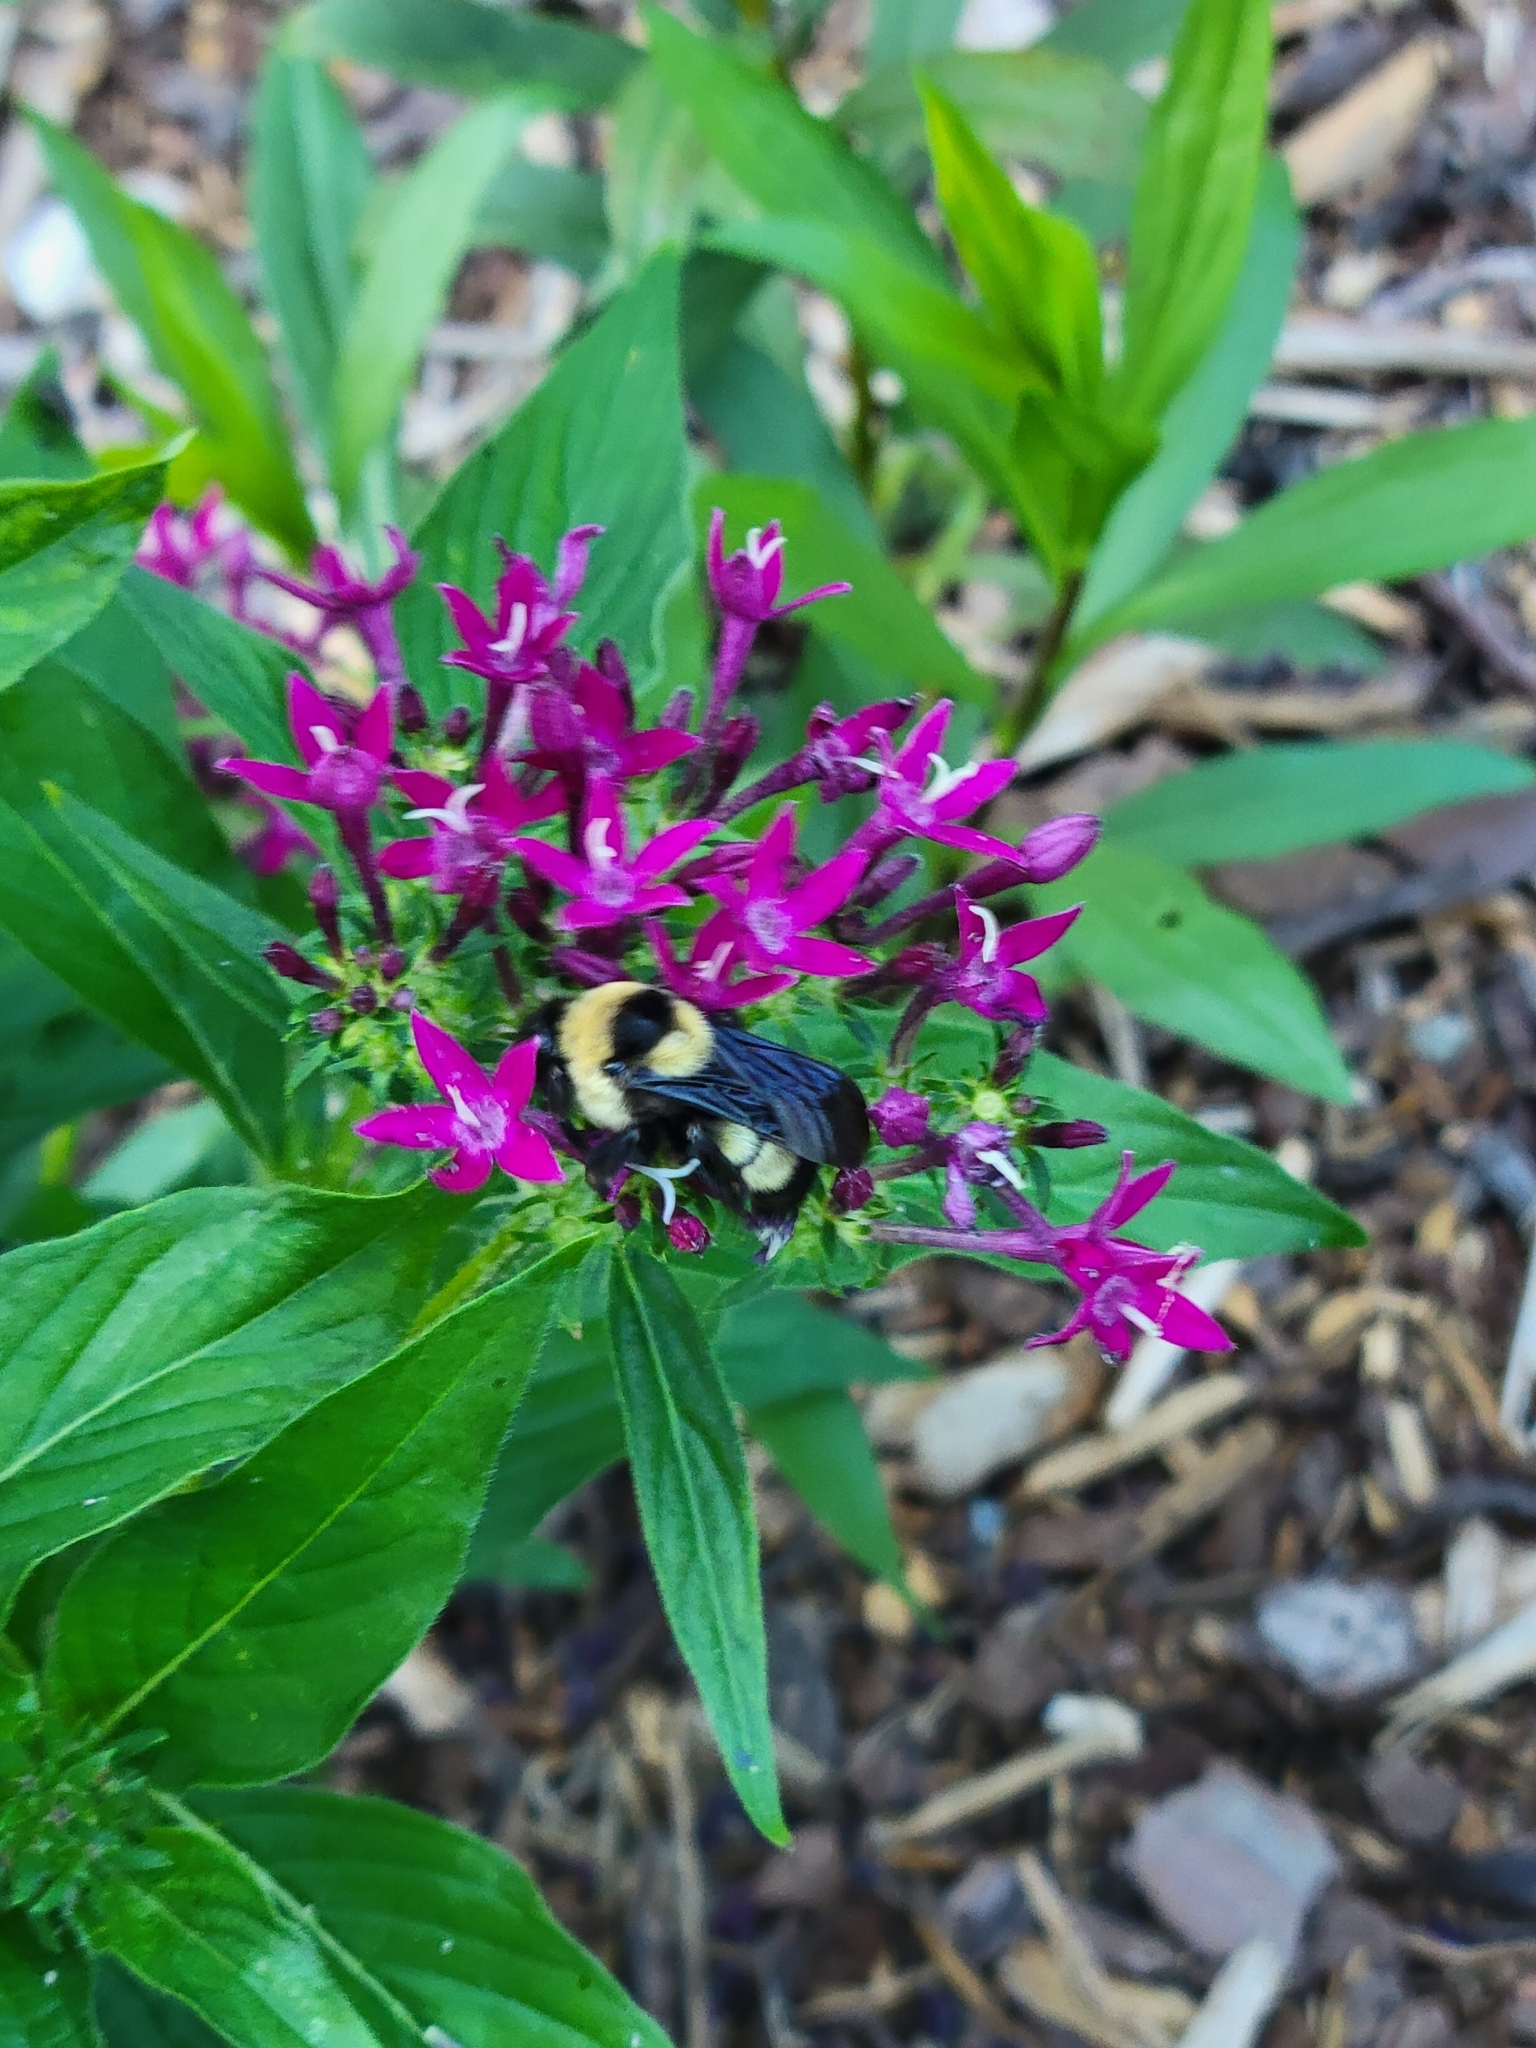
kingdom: Animalia
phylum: Arthropoda
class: Insecta
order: Hymenoptera
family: Apidae
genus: Bombus
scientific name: Bombus fraternus
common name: Southern plains bumble bee
